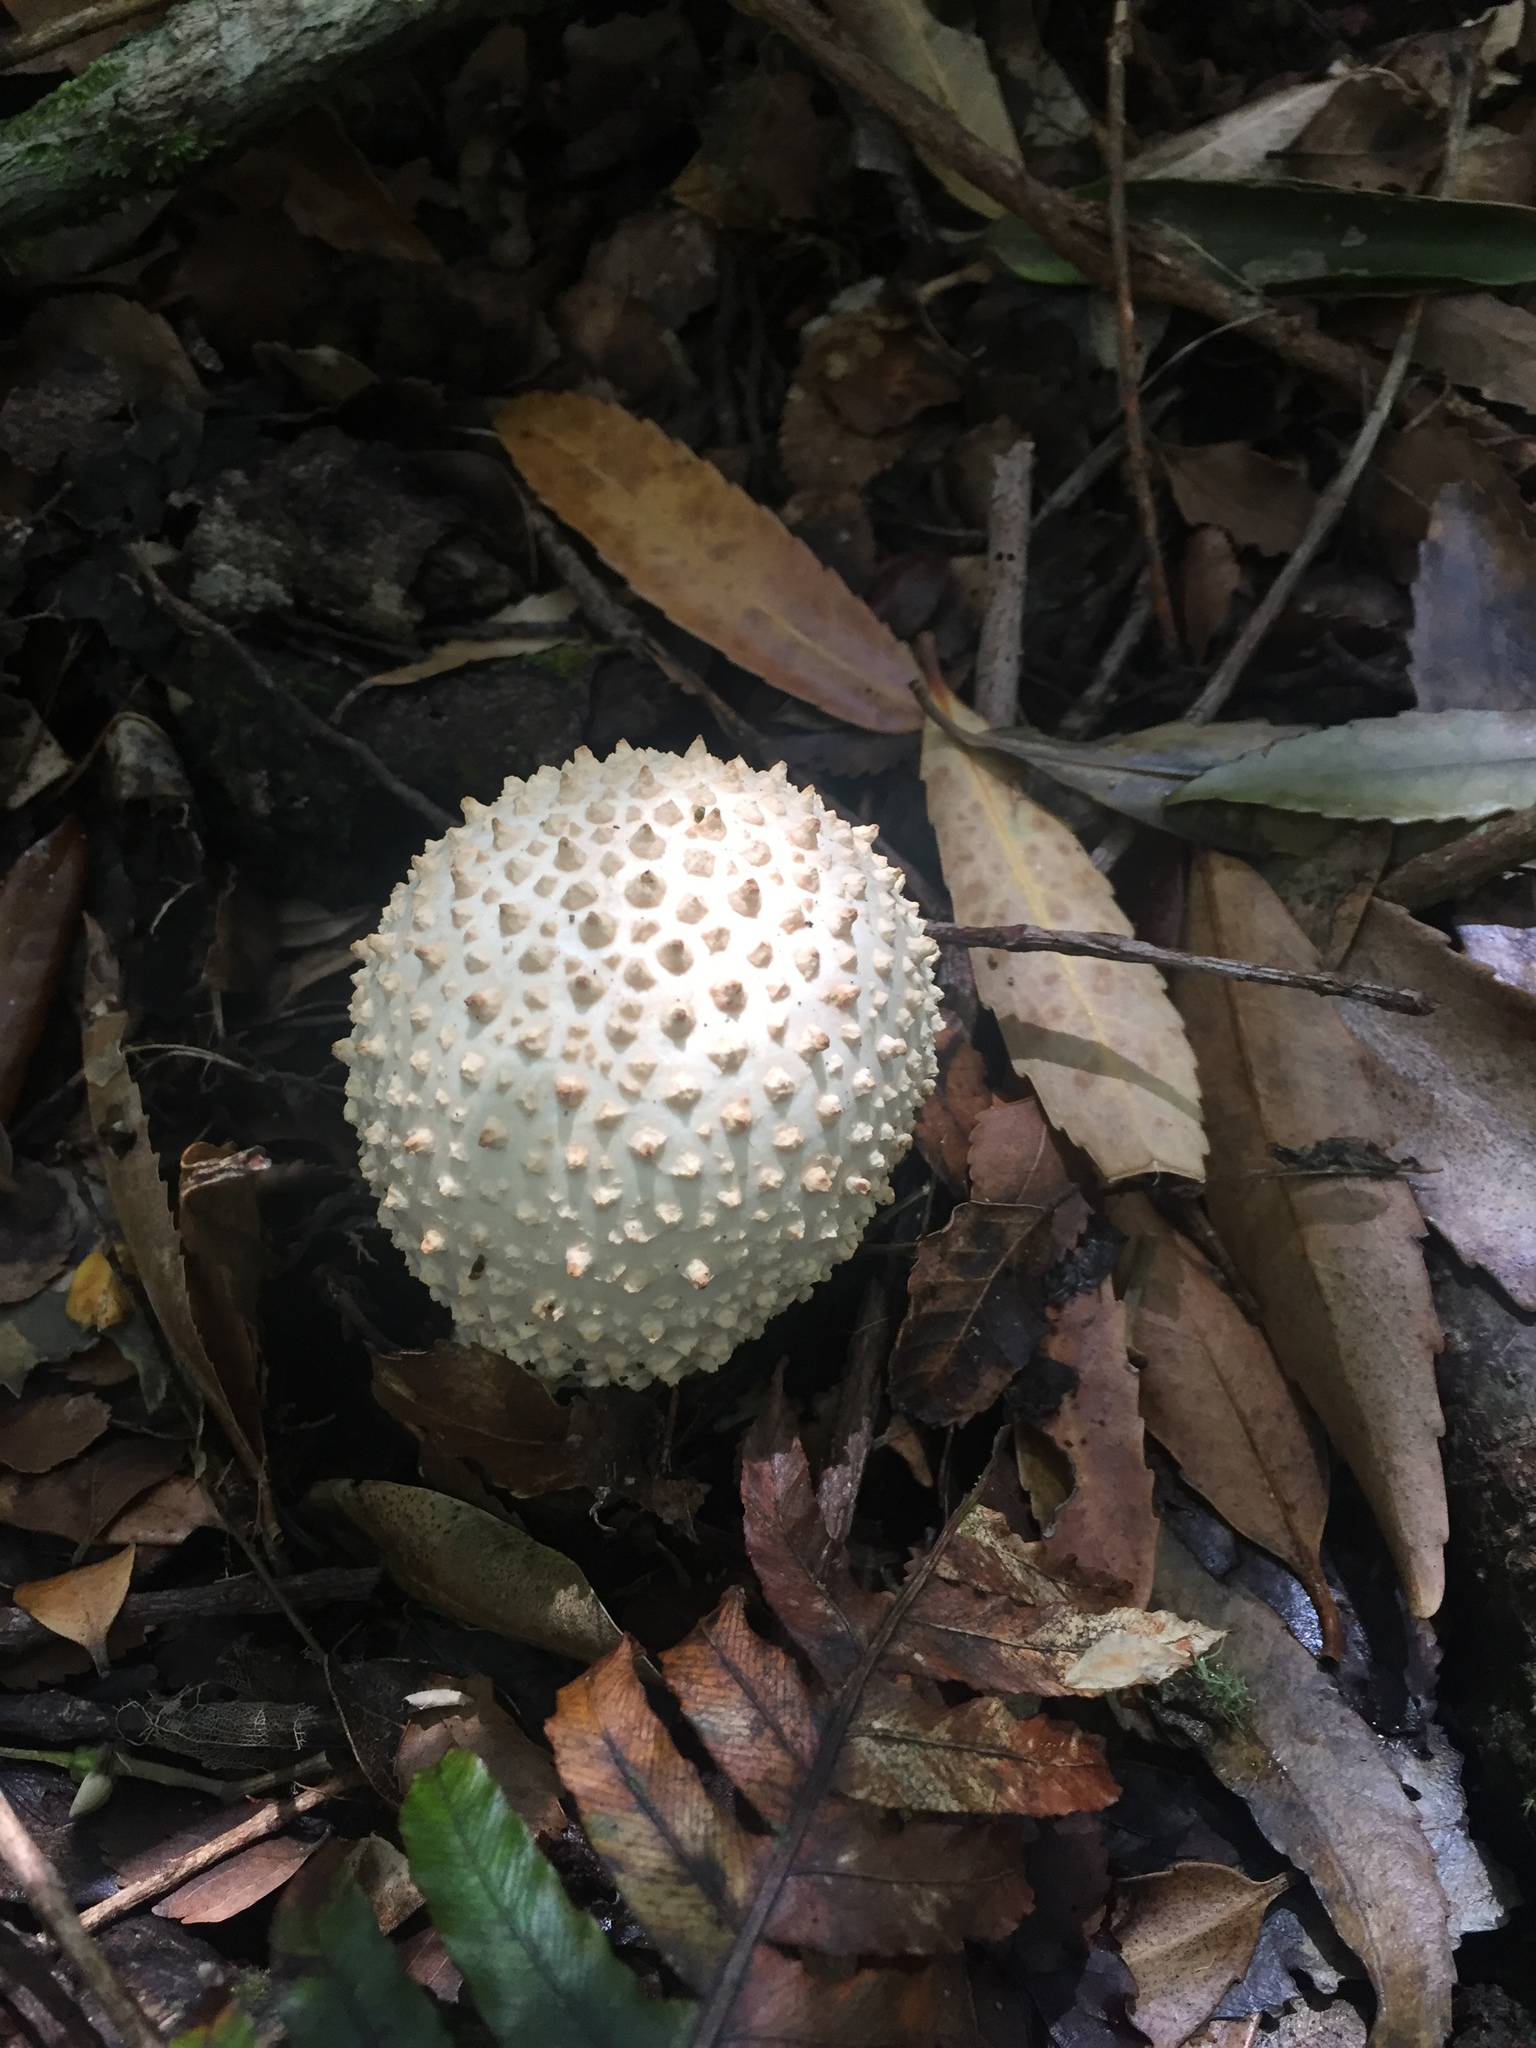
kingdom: Fungi
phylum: Basidiomycota
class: Agaricomycetes
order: Agaricales
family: Amanitaceae
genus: Amanita
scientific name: Amanita pareparina
